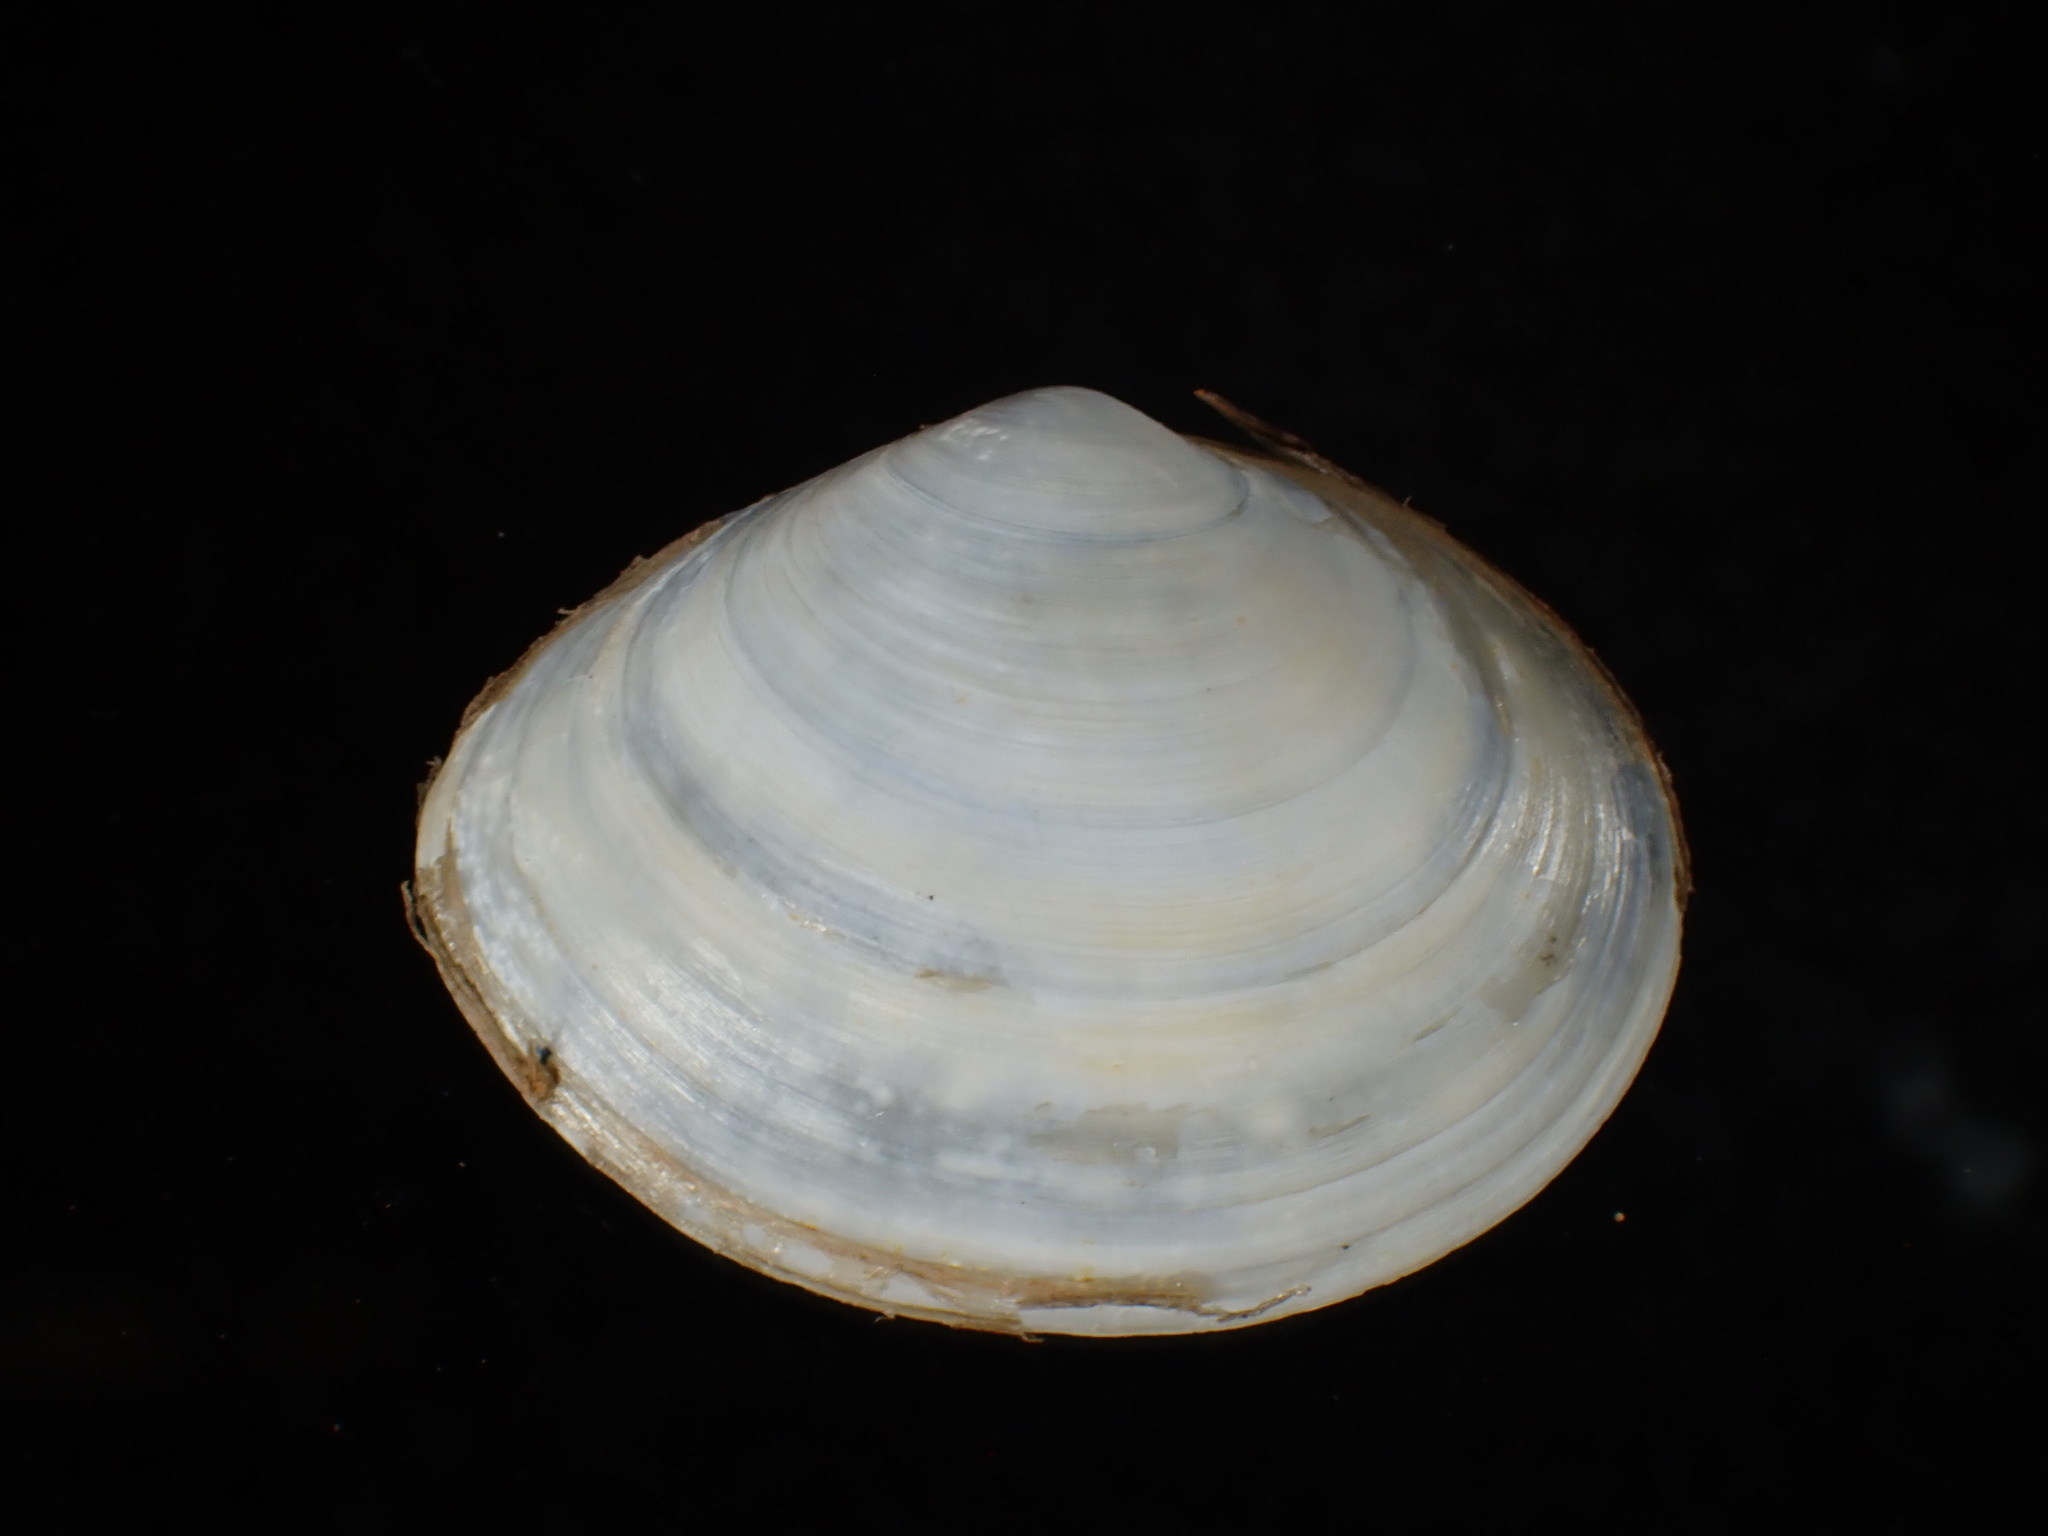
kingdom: Animalia
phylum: Mollusca
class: Bivalvia
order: Cardiida
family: Tellinidae
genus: Macoma
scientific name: Macoma petalum
